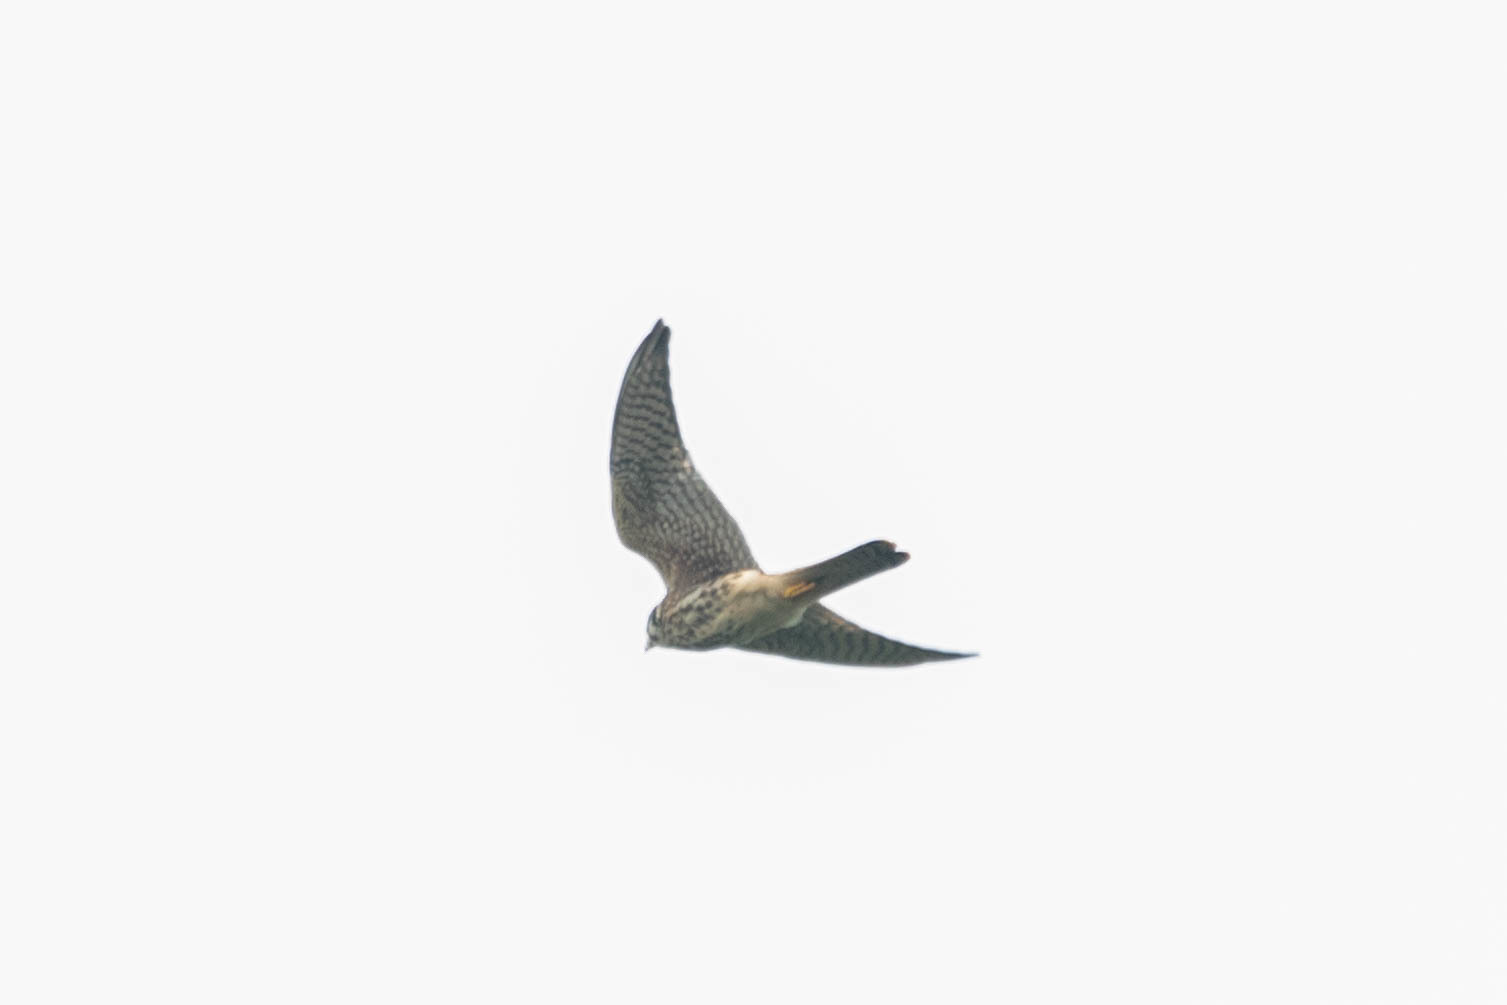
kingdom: Animalia
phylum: Chordata
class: Aves
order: Falconiformes
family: Falconidae
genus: Falco
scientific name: Falco sparverius
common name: American kestrel
